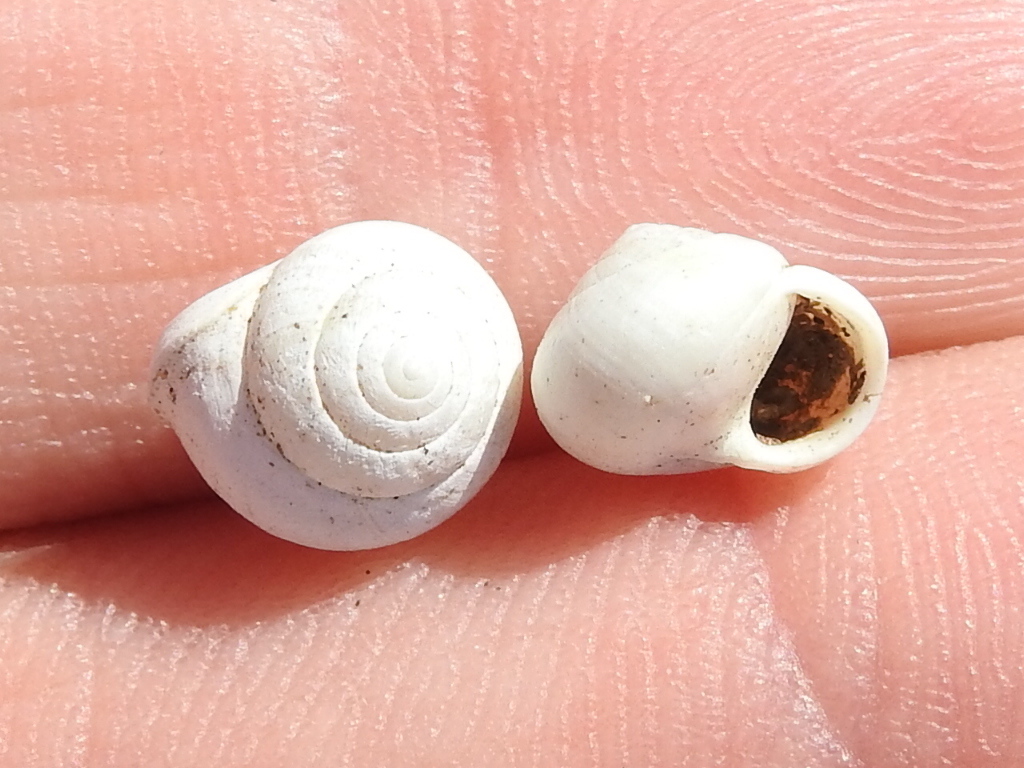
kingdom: Animalia
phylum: Mollusca
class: Gastropoda
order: Cycloneritida
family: Helicinidae
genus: Helicina
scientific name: Helicina orbiculata
